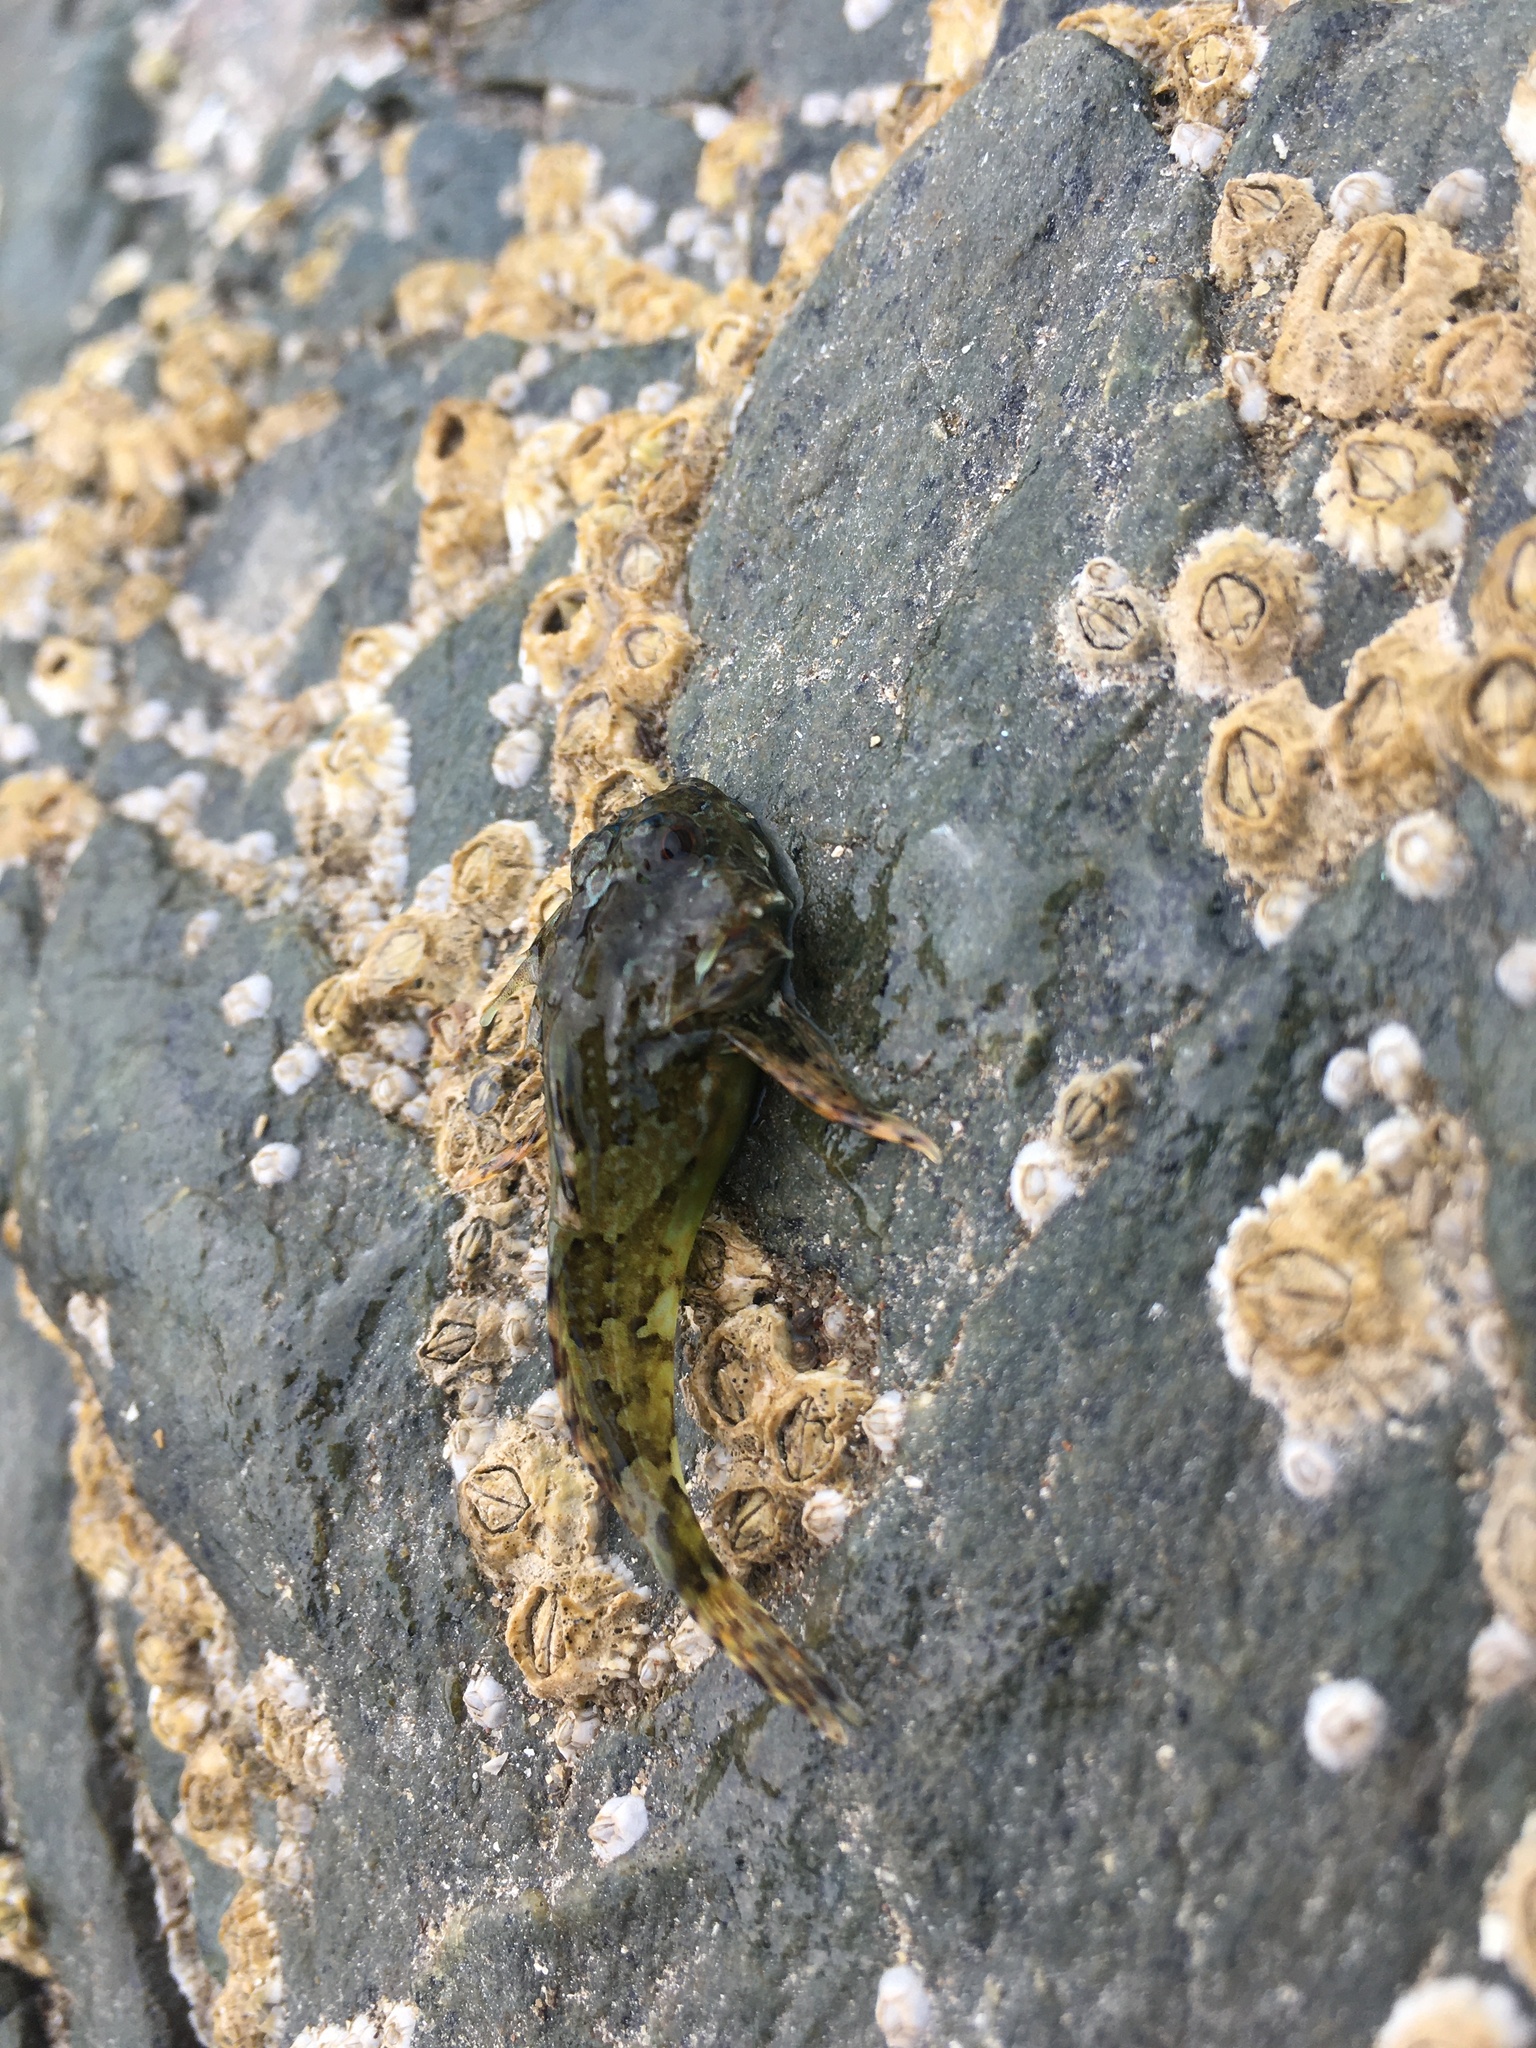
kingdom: Animalia
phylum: Chordata
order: Scorpaeniformes
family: Cottidae
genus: Taurulus
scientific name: Taurulus bubalis
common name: Sea scorpion
